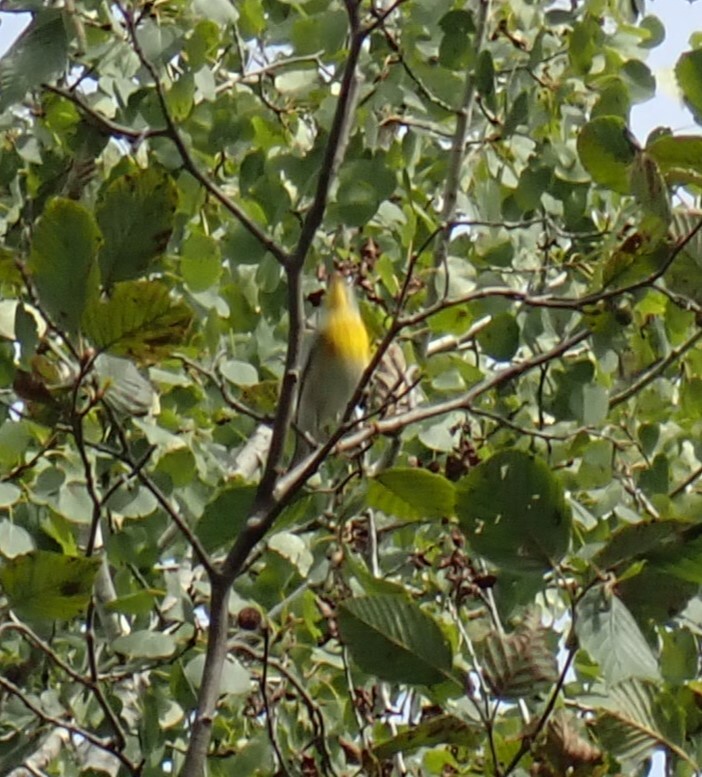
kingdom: Animalia
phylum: Chordata
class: Aves
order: Passeriformes
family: Parulidae
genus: Setophaga
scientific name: Setophaga americana
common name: Northern parula
